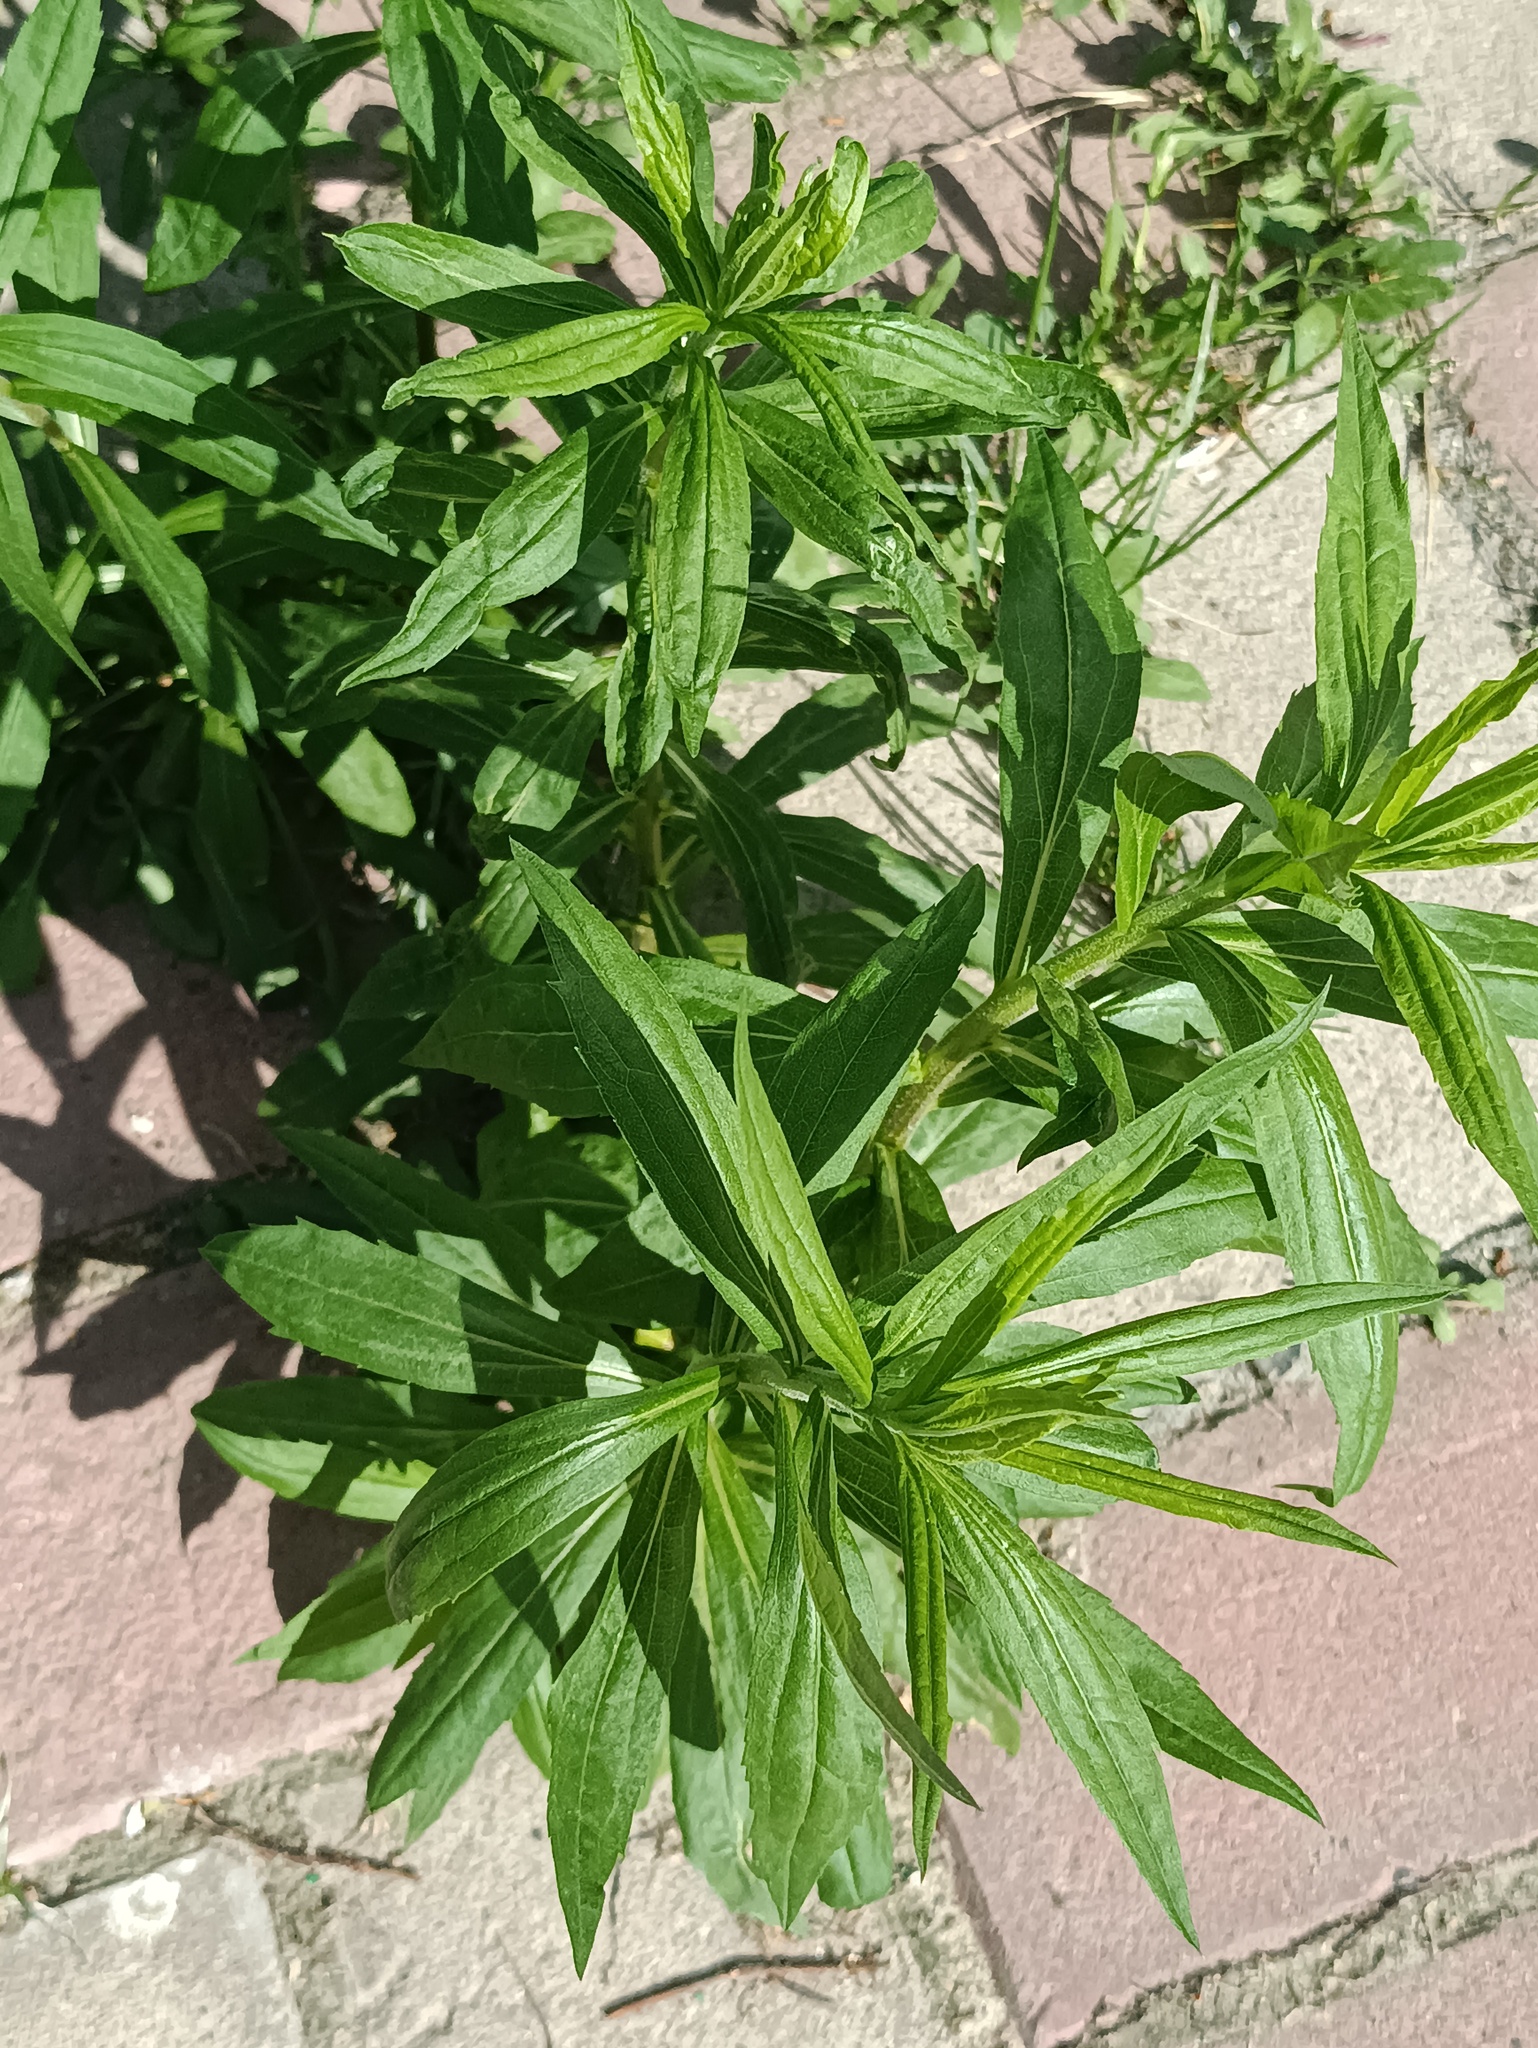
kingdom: Plantae
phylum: Tracheophyta
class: Magnoliopsida
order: Asterales
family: Asteraceae
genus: Solidago
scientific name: Solidago canadensis
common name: Canada goldenrod
